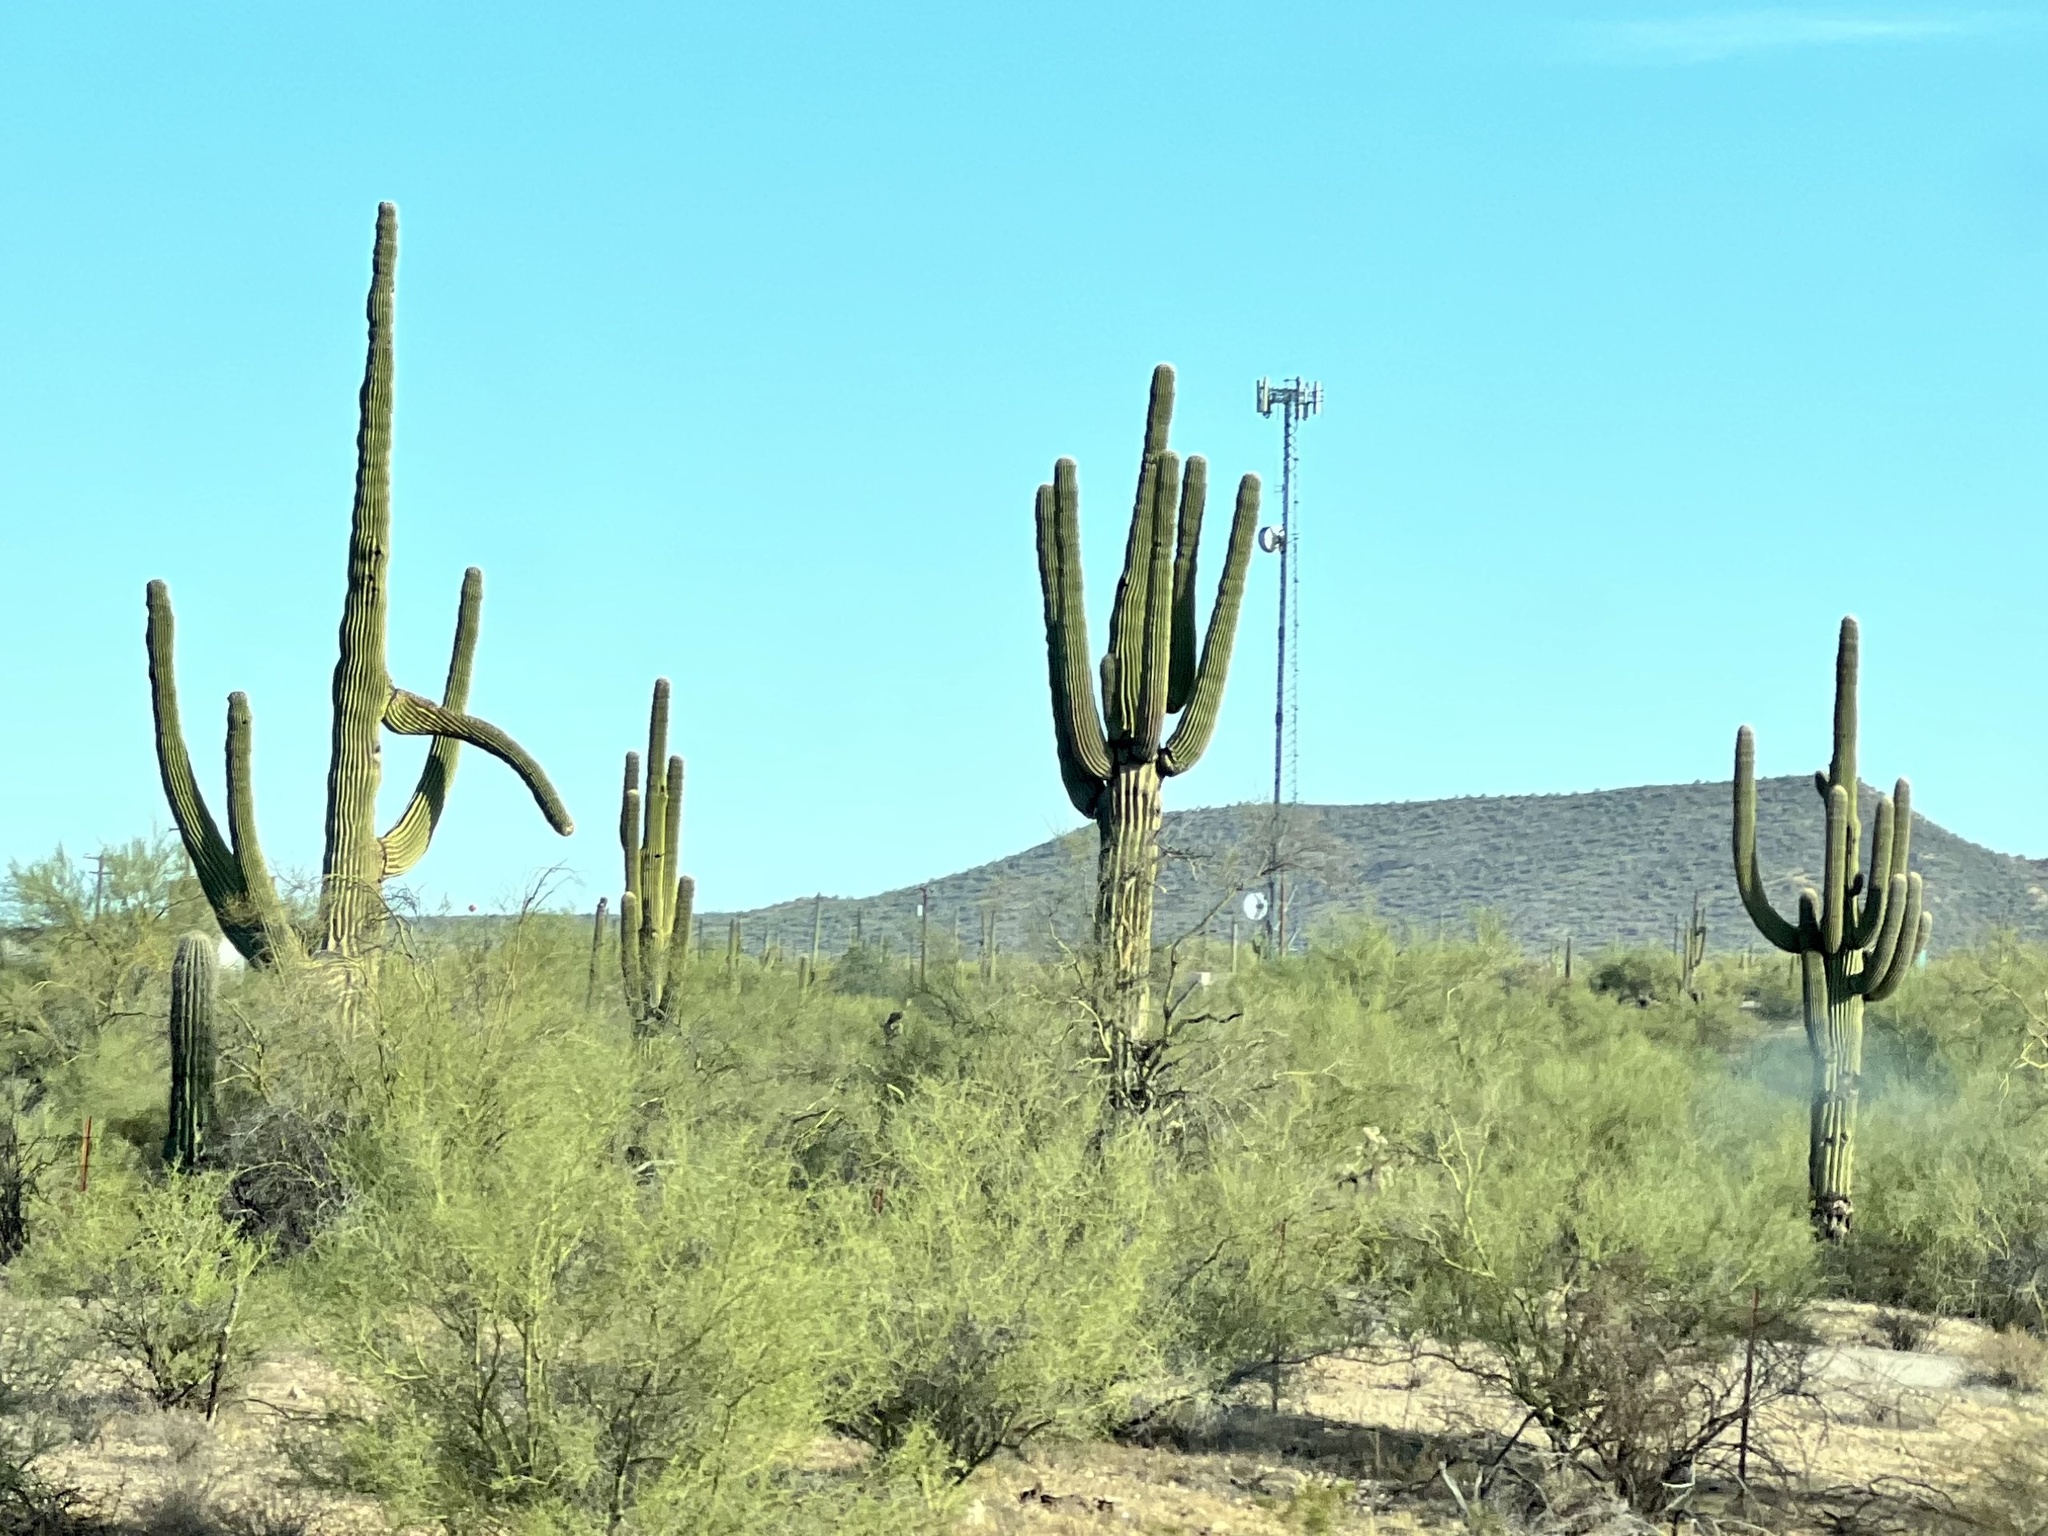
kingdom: Plantae
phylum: Tracheophyta
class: Magnoliopsida
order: Caryophyllales
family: Cactaceae
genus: Carnegiea
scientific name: Carnegiea gigantea
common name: Saguaro
